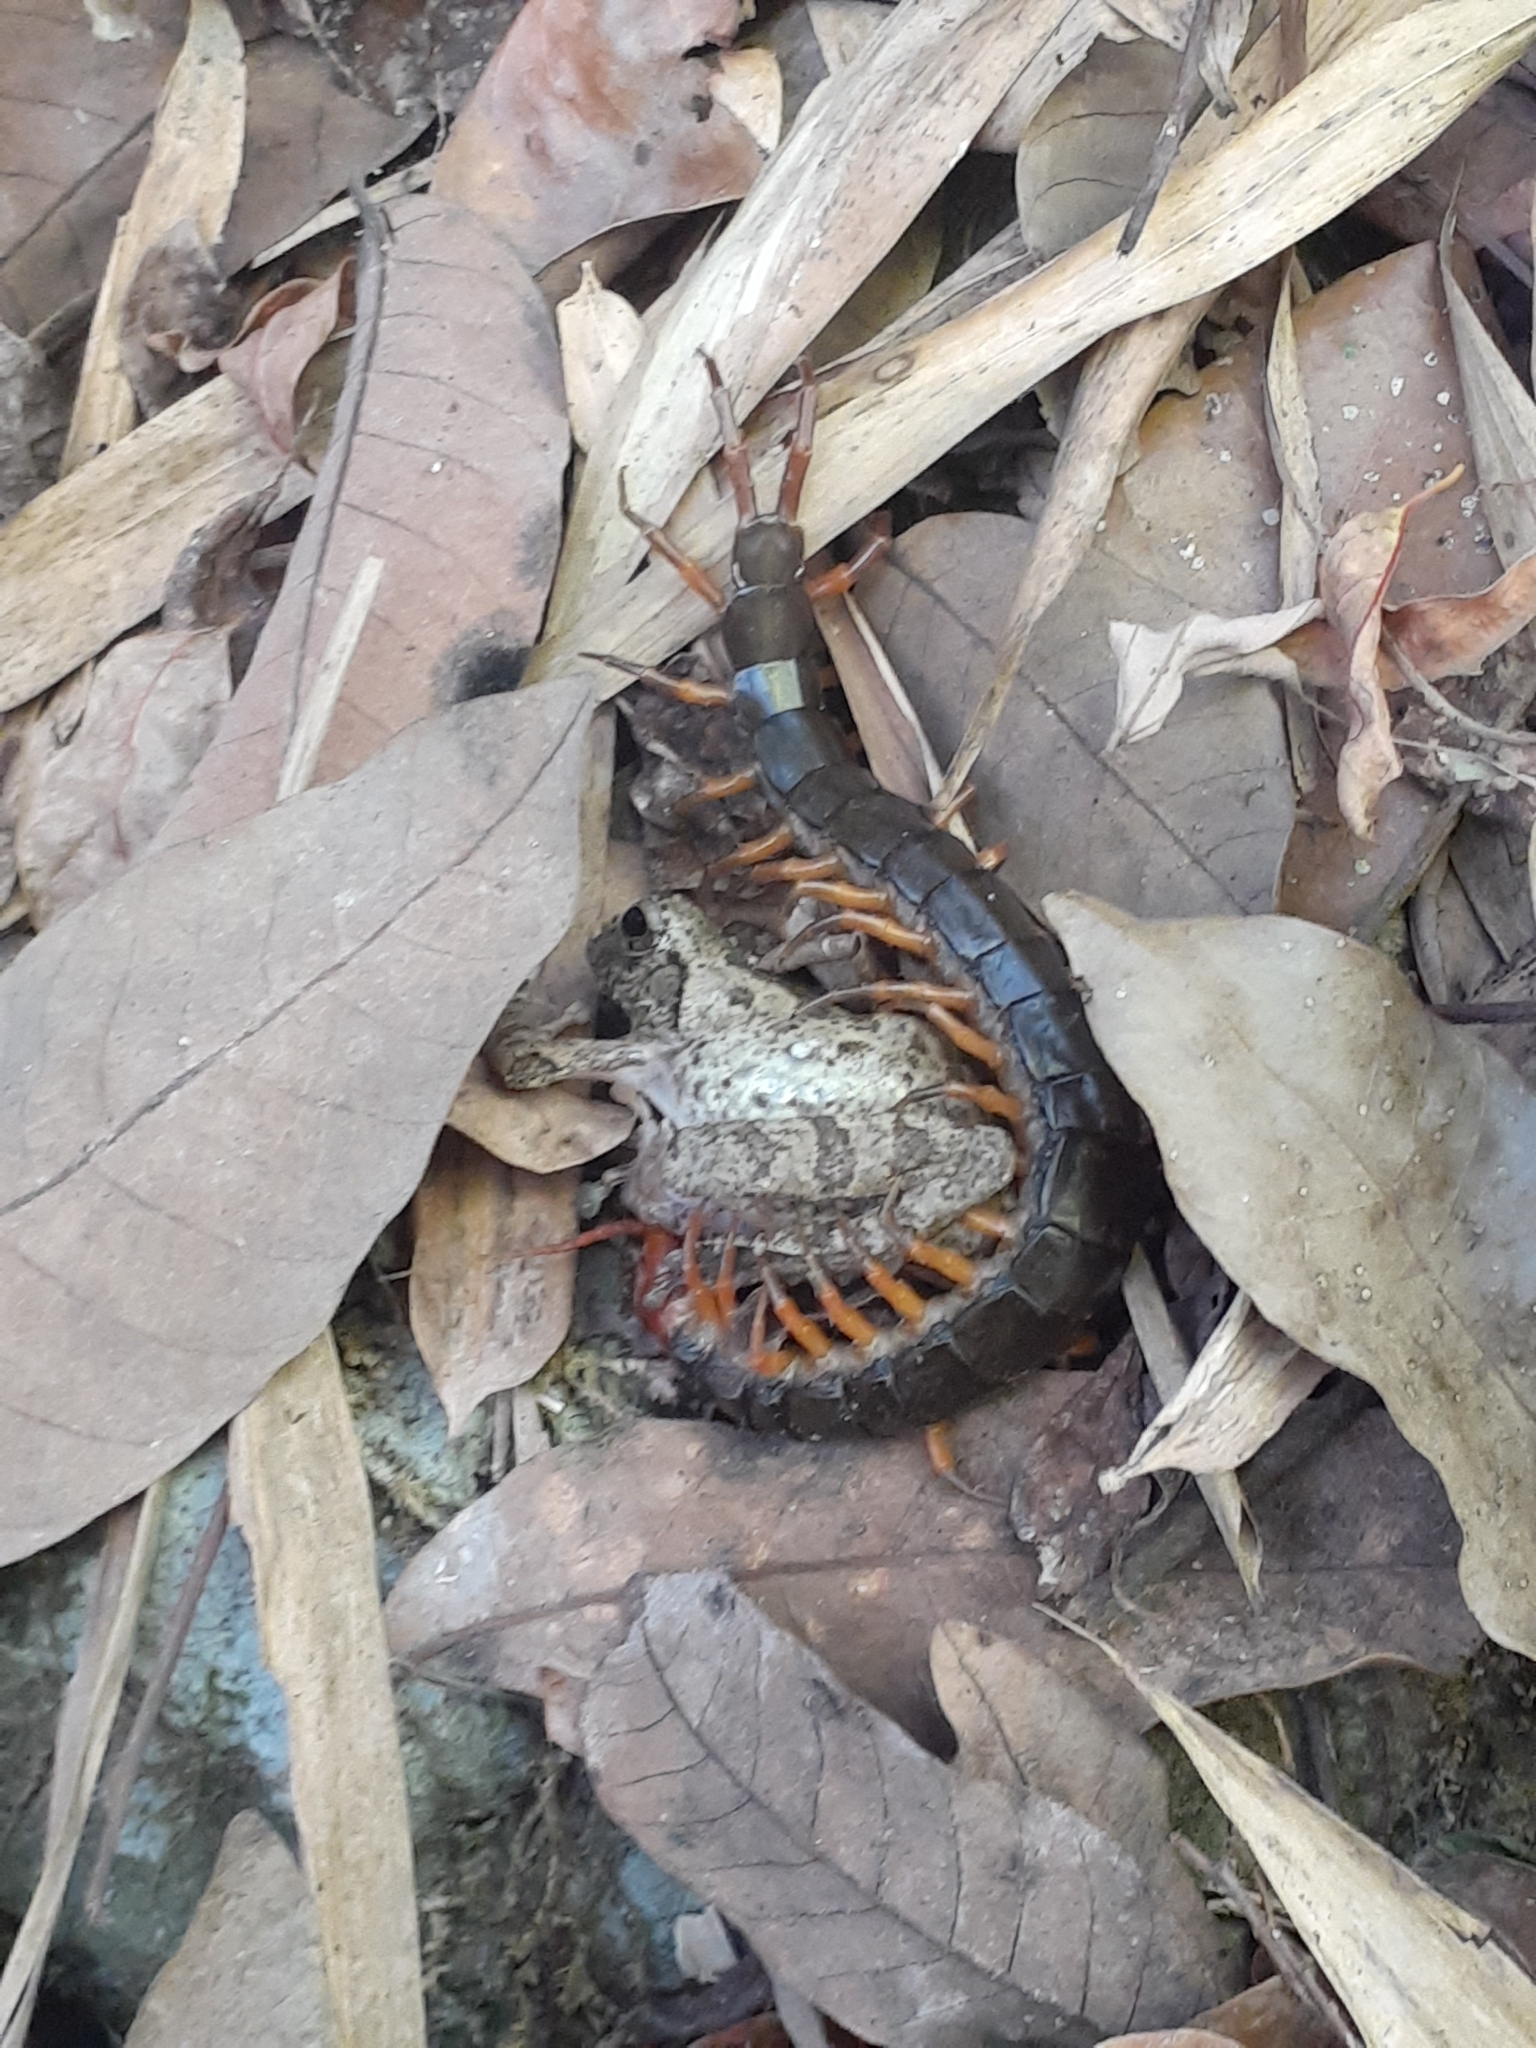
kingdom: Animalia
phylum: Chordata
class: Amphibia
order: Anura
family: Rhacophoridae
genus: Buergeria
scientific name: Buergeria robusta
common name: Brown treefrog
